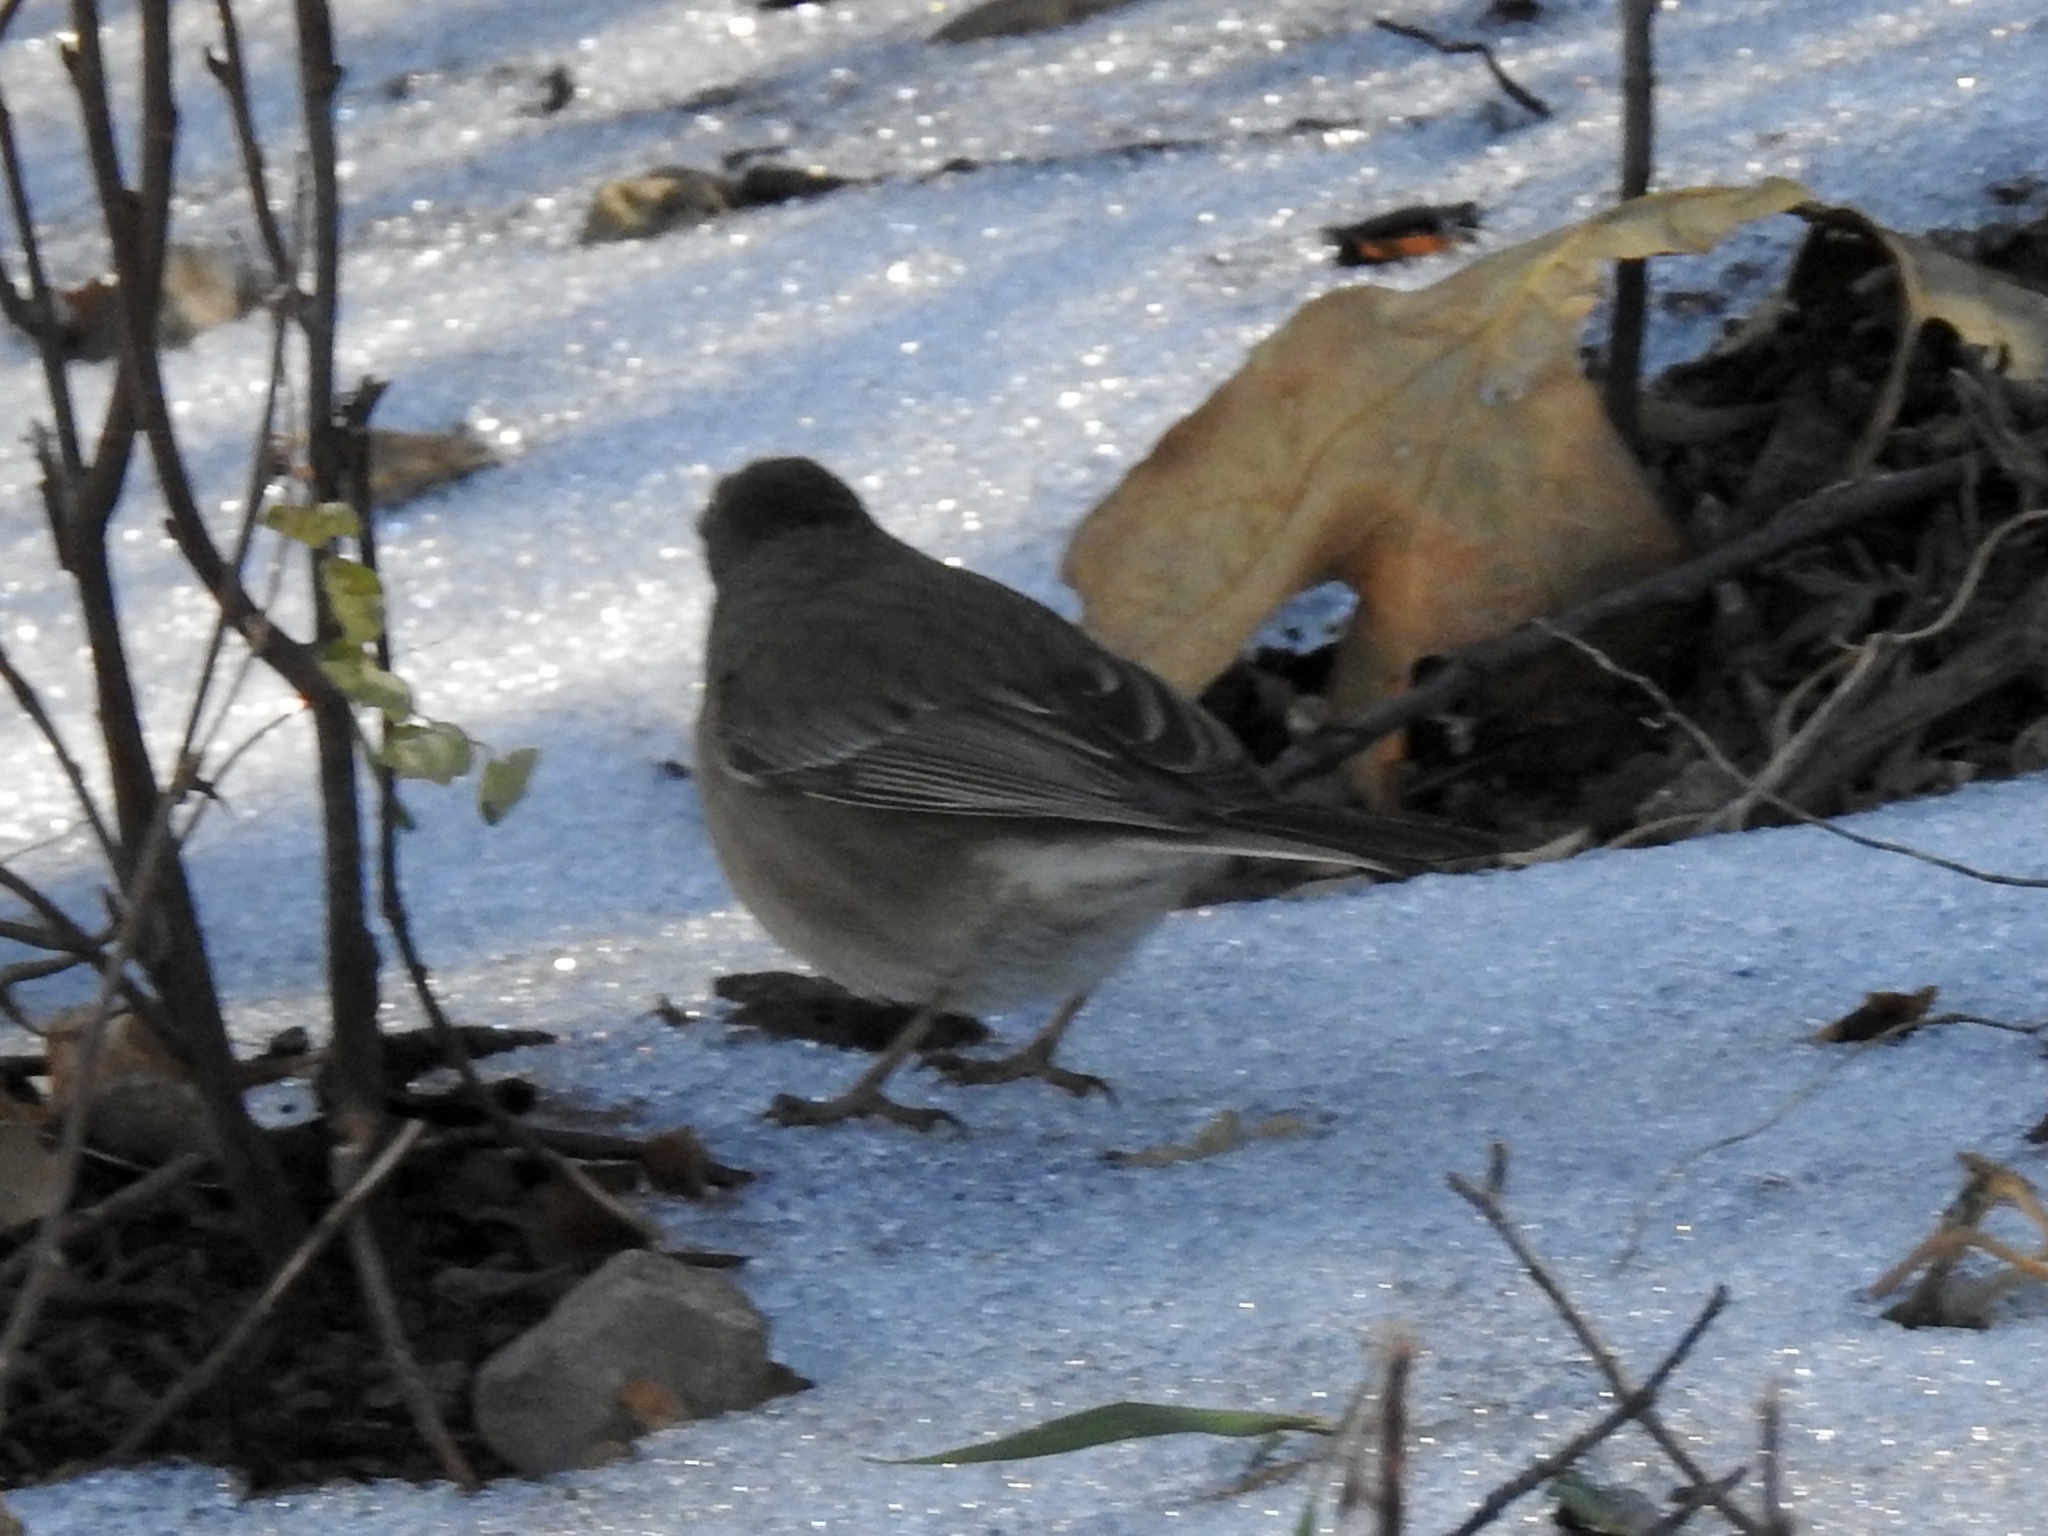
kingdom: Animalia
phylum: Chordata
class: Aves
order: Passeriformes
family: Passerellidae
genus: Junco
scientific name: Junco hyemalis
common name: Dark-eyed junco
